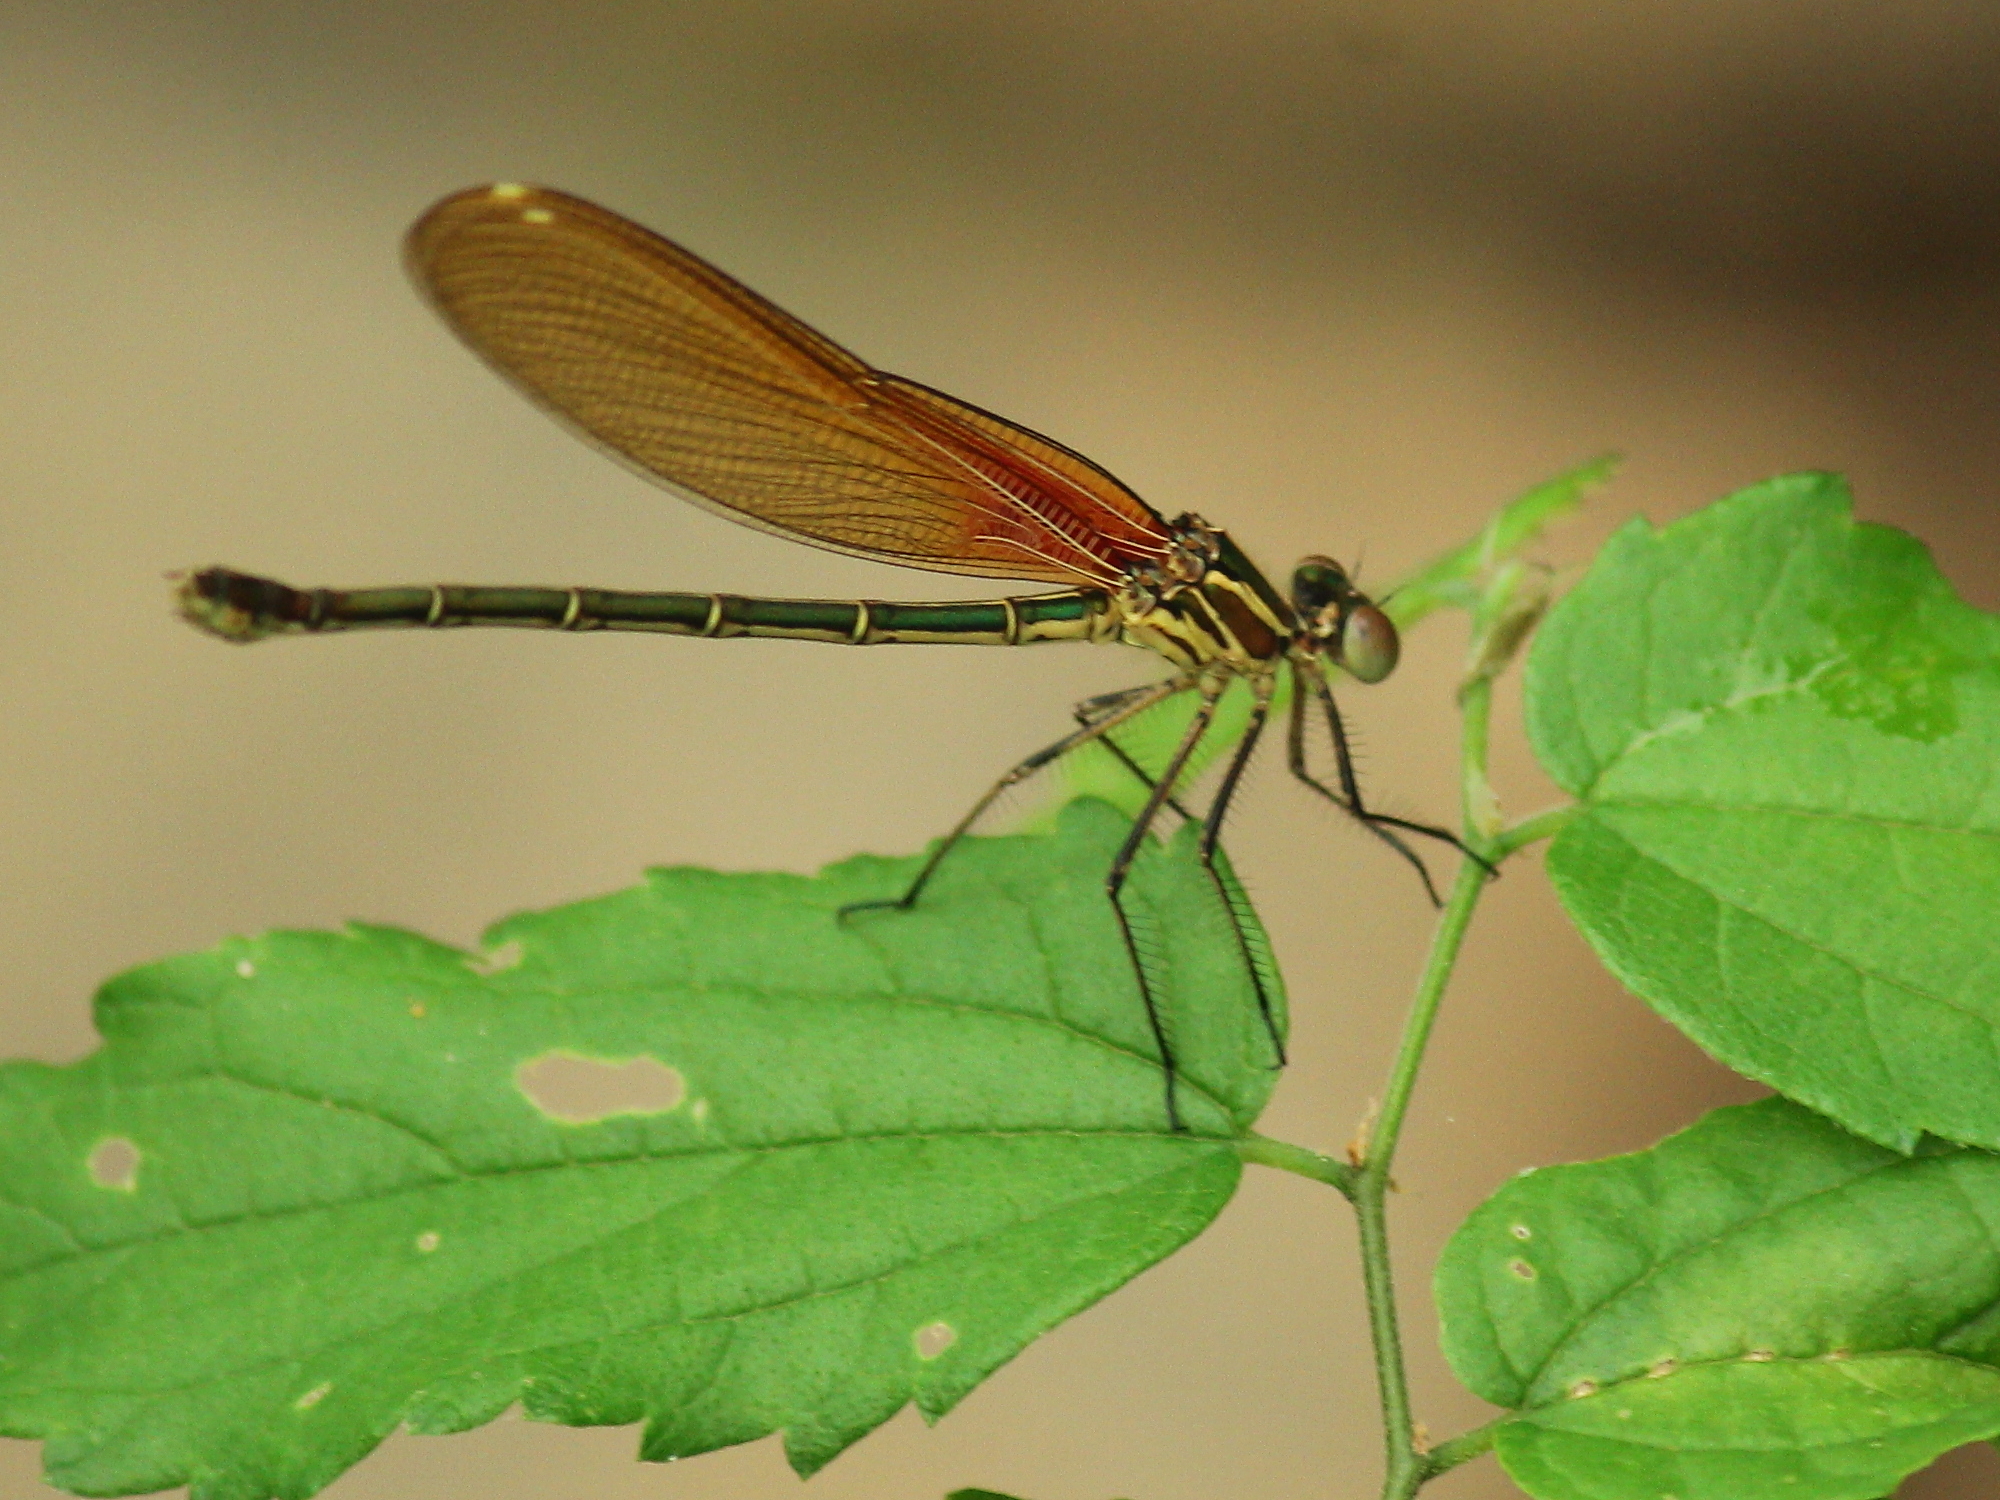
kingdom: Animalia
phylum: Arthropoda
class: Insecta
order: Odonata
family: Calopterygidae
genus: Hetaerina
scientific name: Hetaerina americana
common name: American rubyspot
